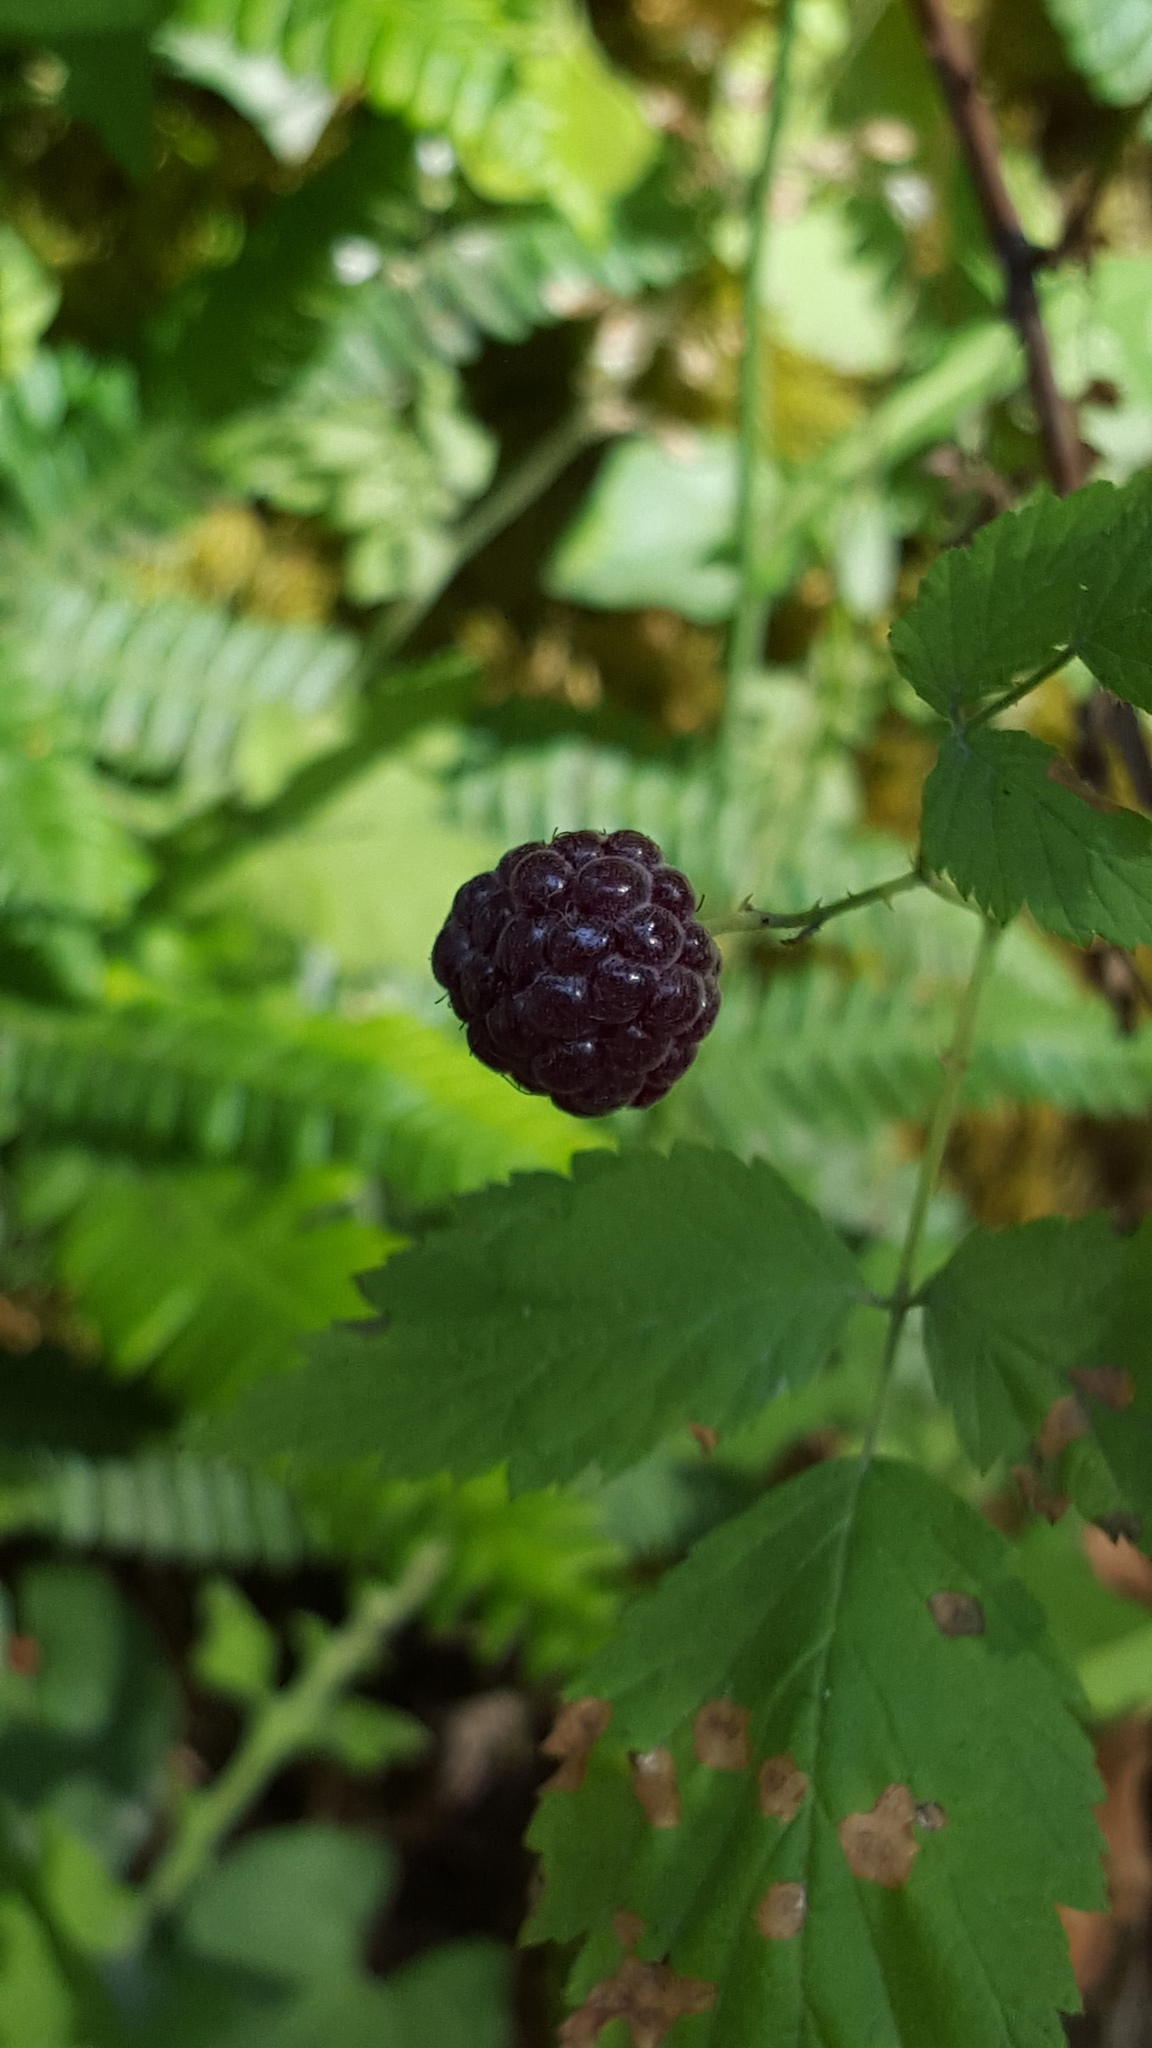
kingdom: Plantae
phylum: Tracheophyta
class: Magnoliopsida
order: Rosales
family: Rosaceae
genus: Rubus
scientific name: Rubus leucodermis
